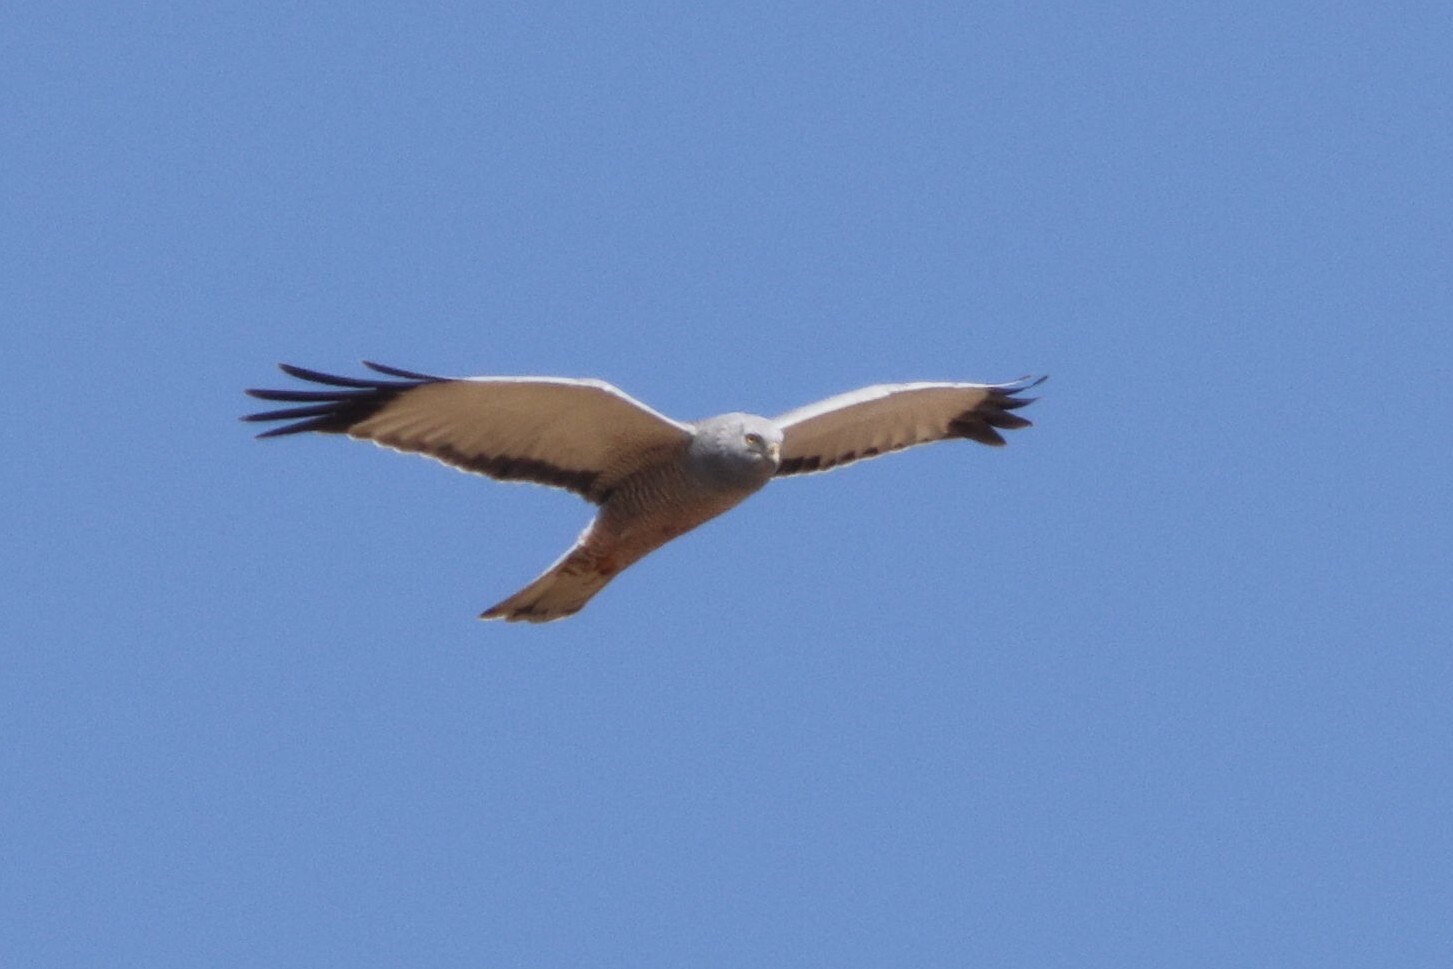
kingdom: Animalia
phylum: Chordata
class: Aves
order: Accipitriformes
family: Accipitridae
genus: Circus
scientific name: Circus cinereus
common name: Cinereous harrier
